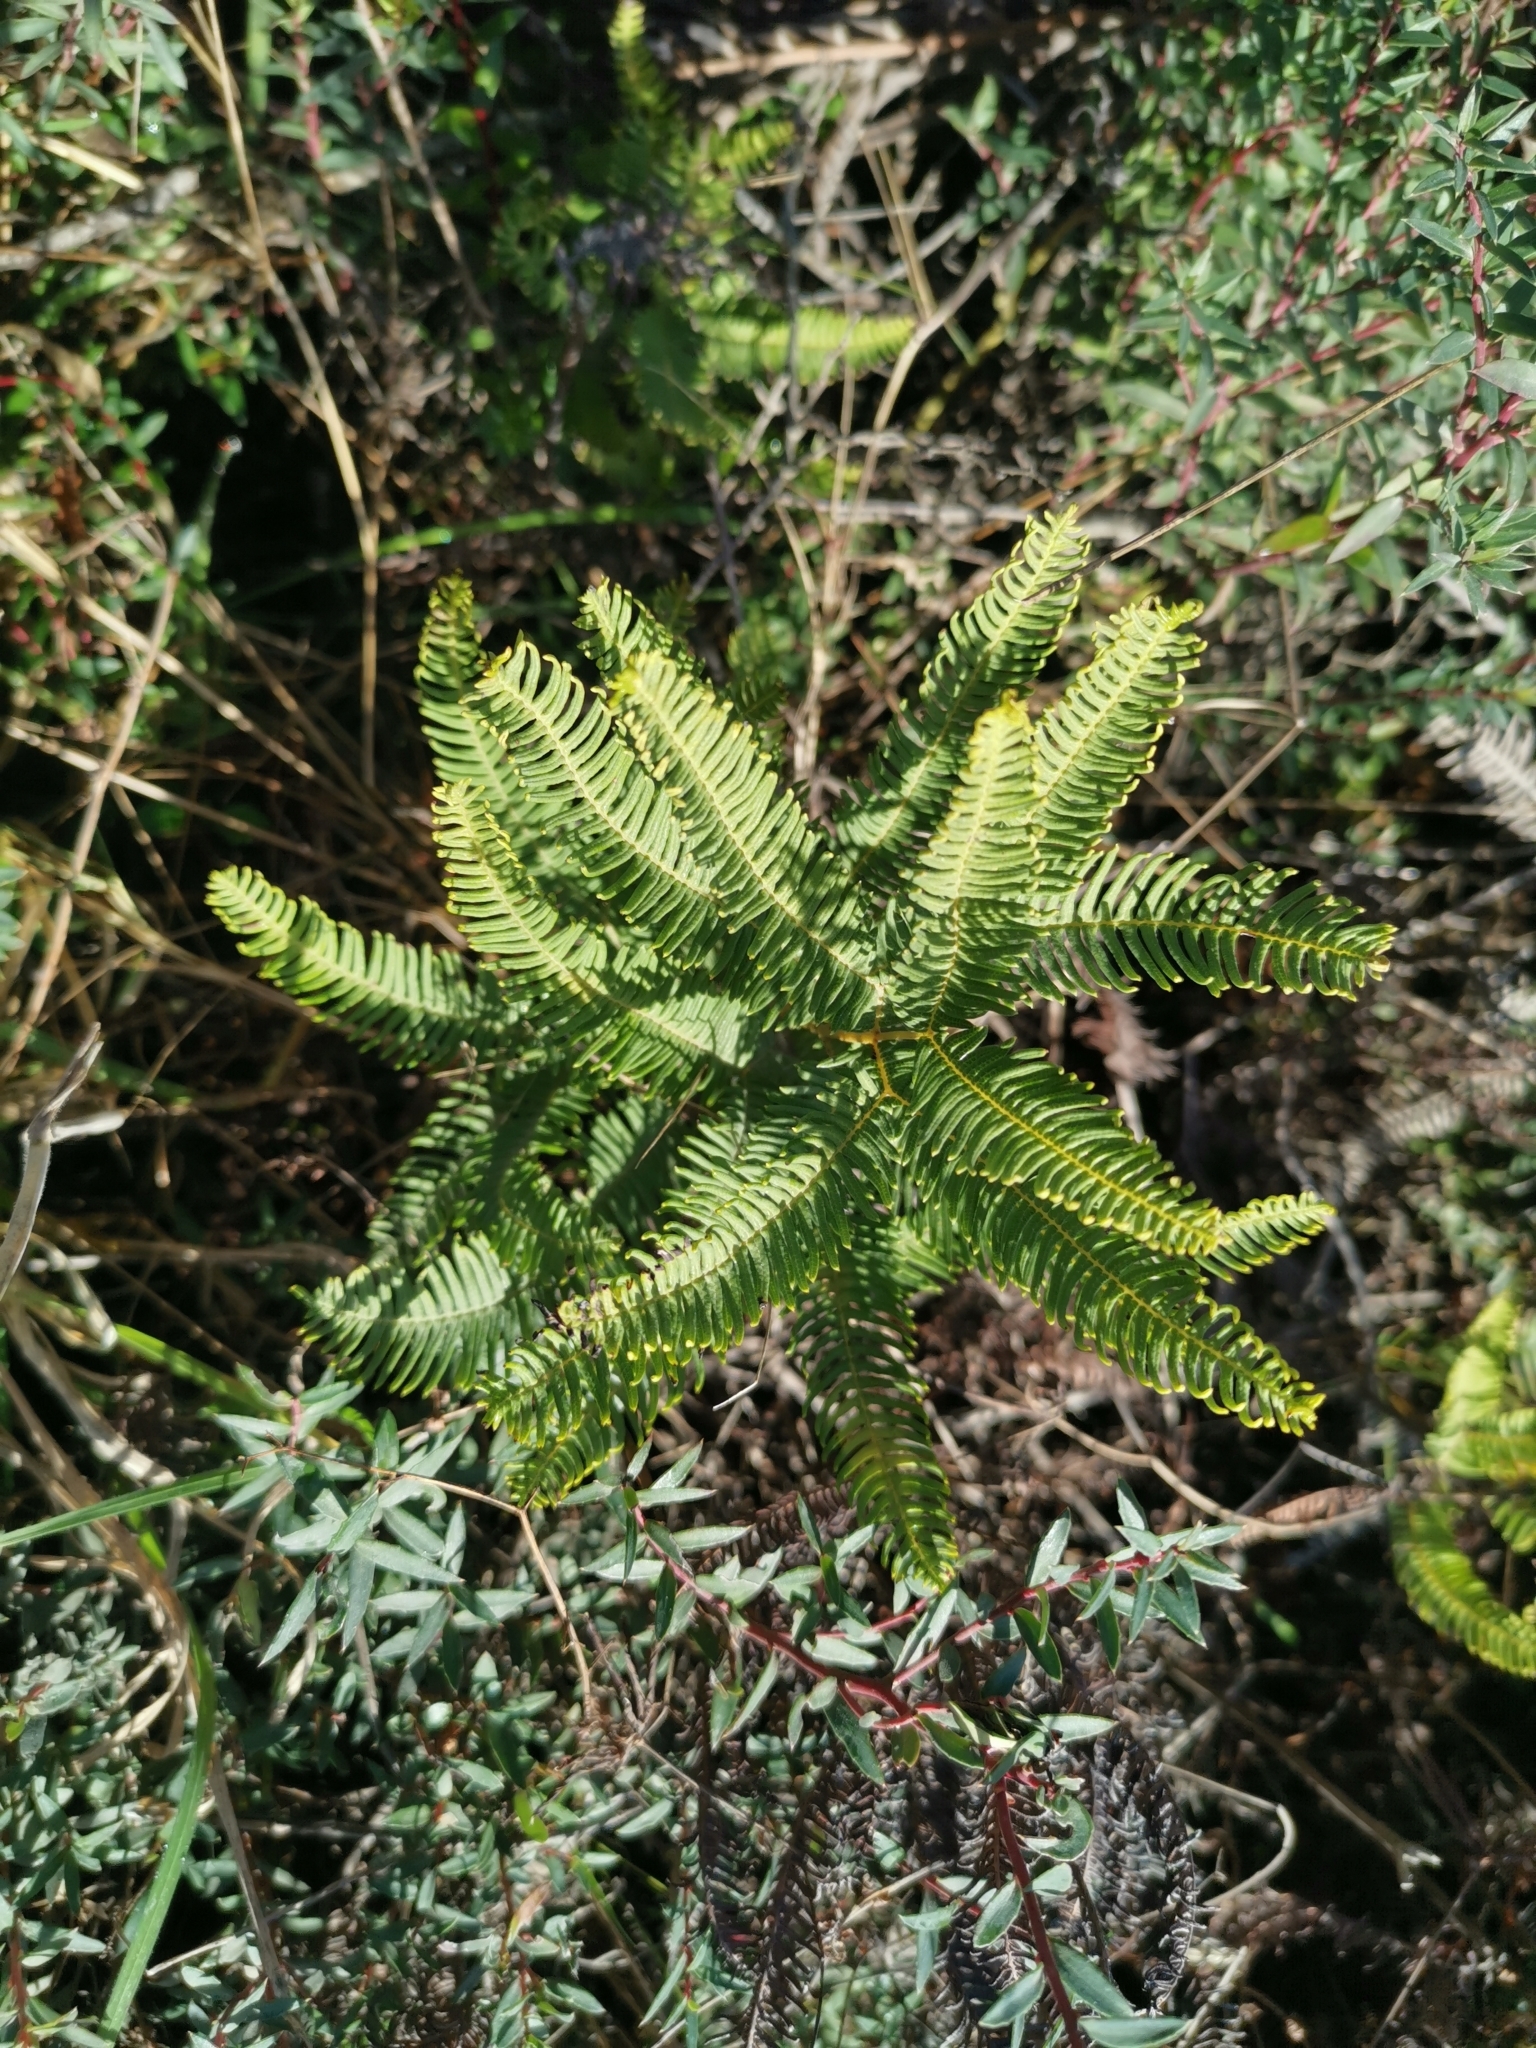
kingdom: Plantae
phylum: Tracheophyta
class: Polypodiopsida
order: Gleicheniales
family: Gleicheniaceae
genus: Sticherus
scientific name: Sticherus cryptocarpus
